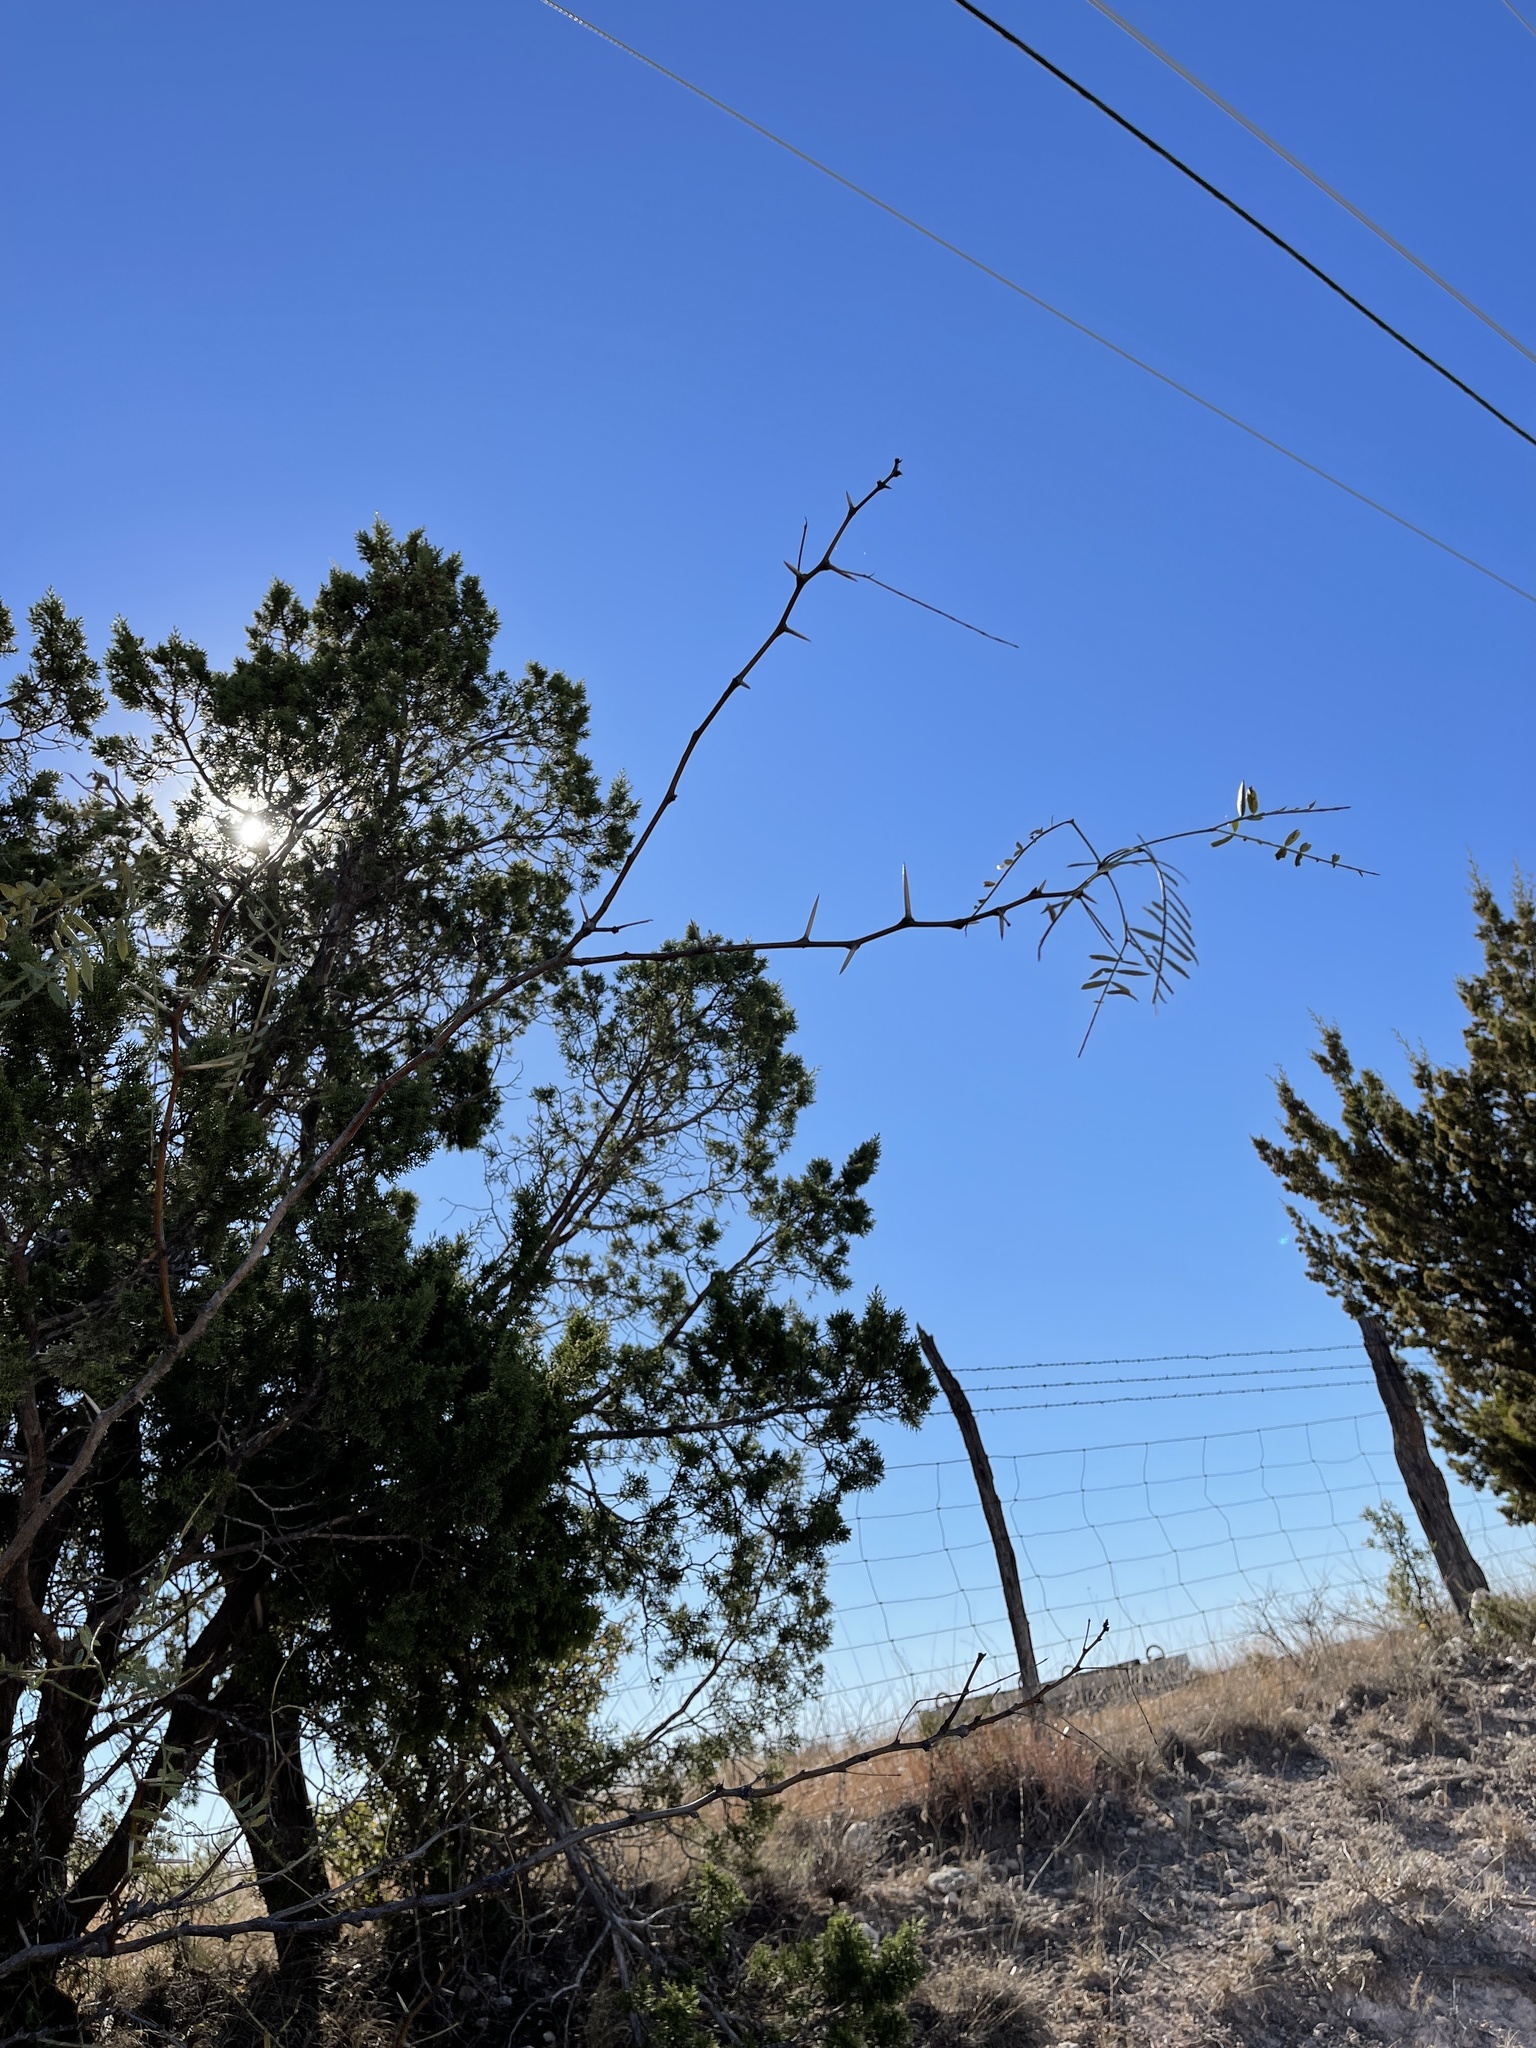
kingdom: Plantae
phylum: Tracheophyta
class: Magnoliopsida
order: Fabales
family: Fabaceae
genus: Prosopis
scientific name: Prosopis glandulosa
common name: Honey mesquite
